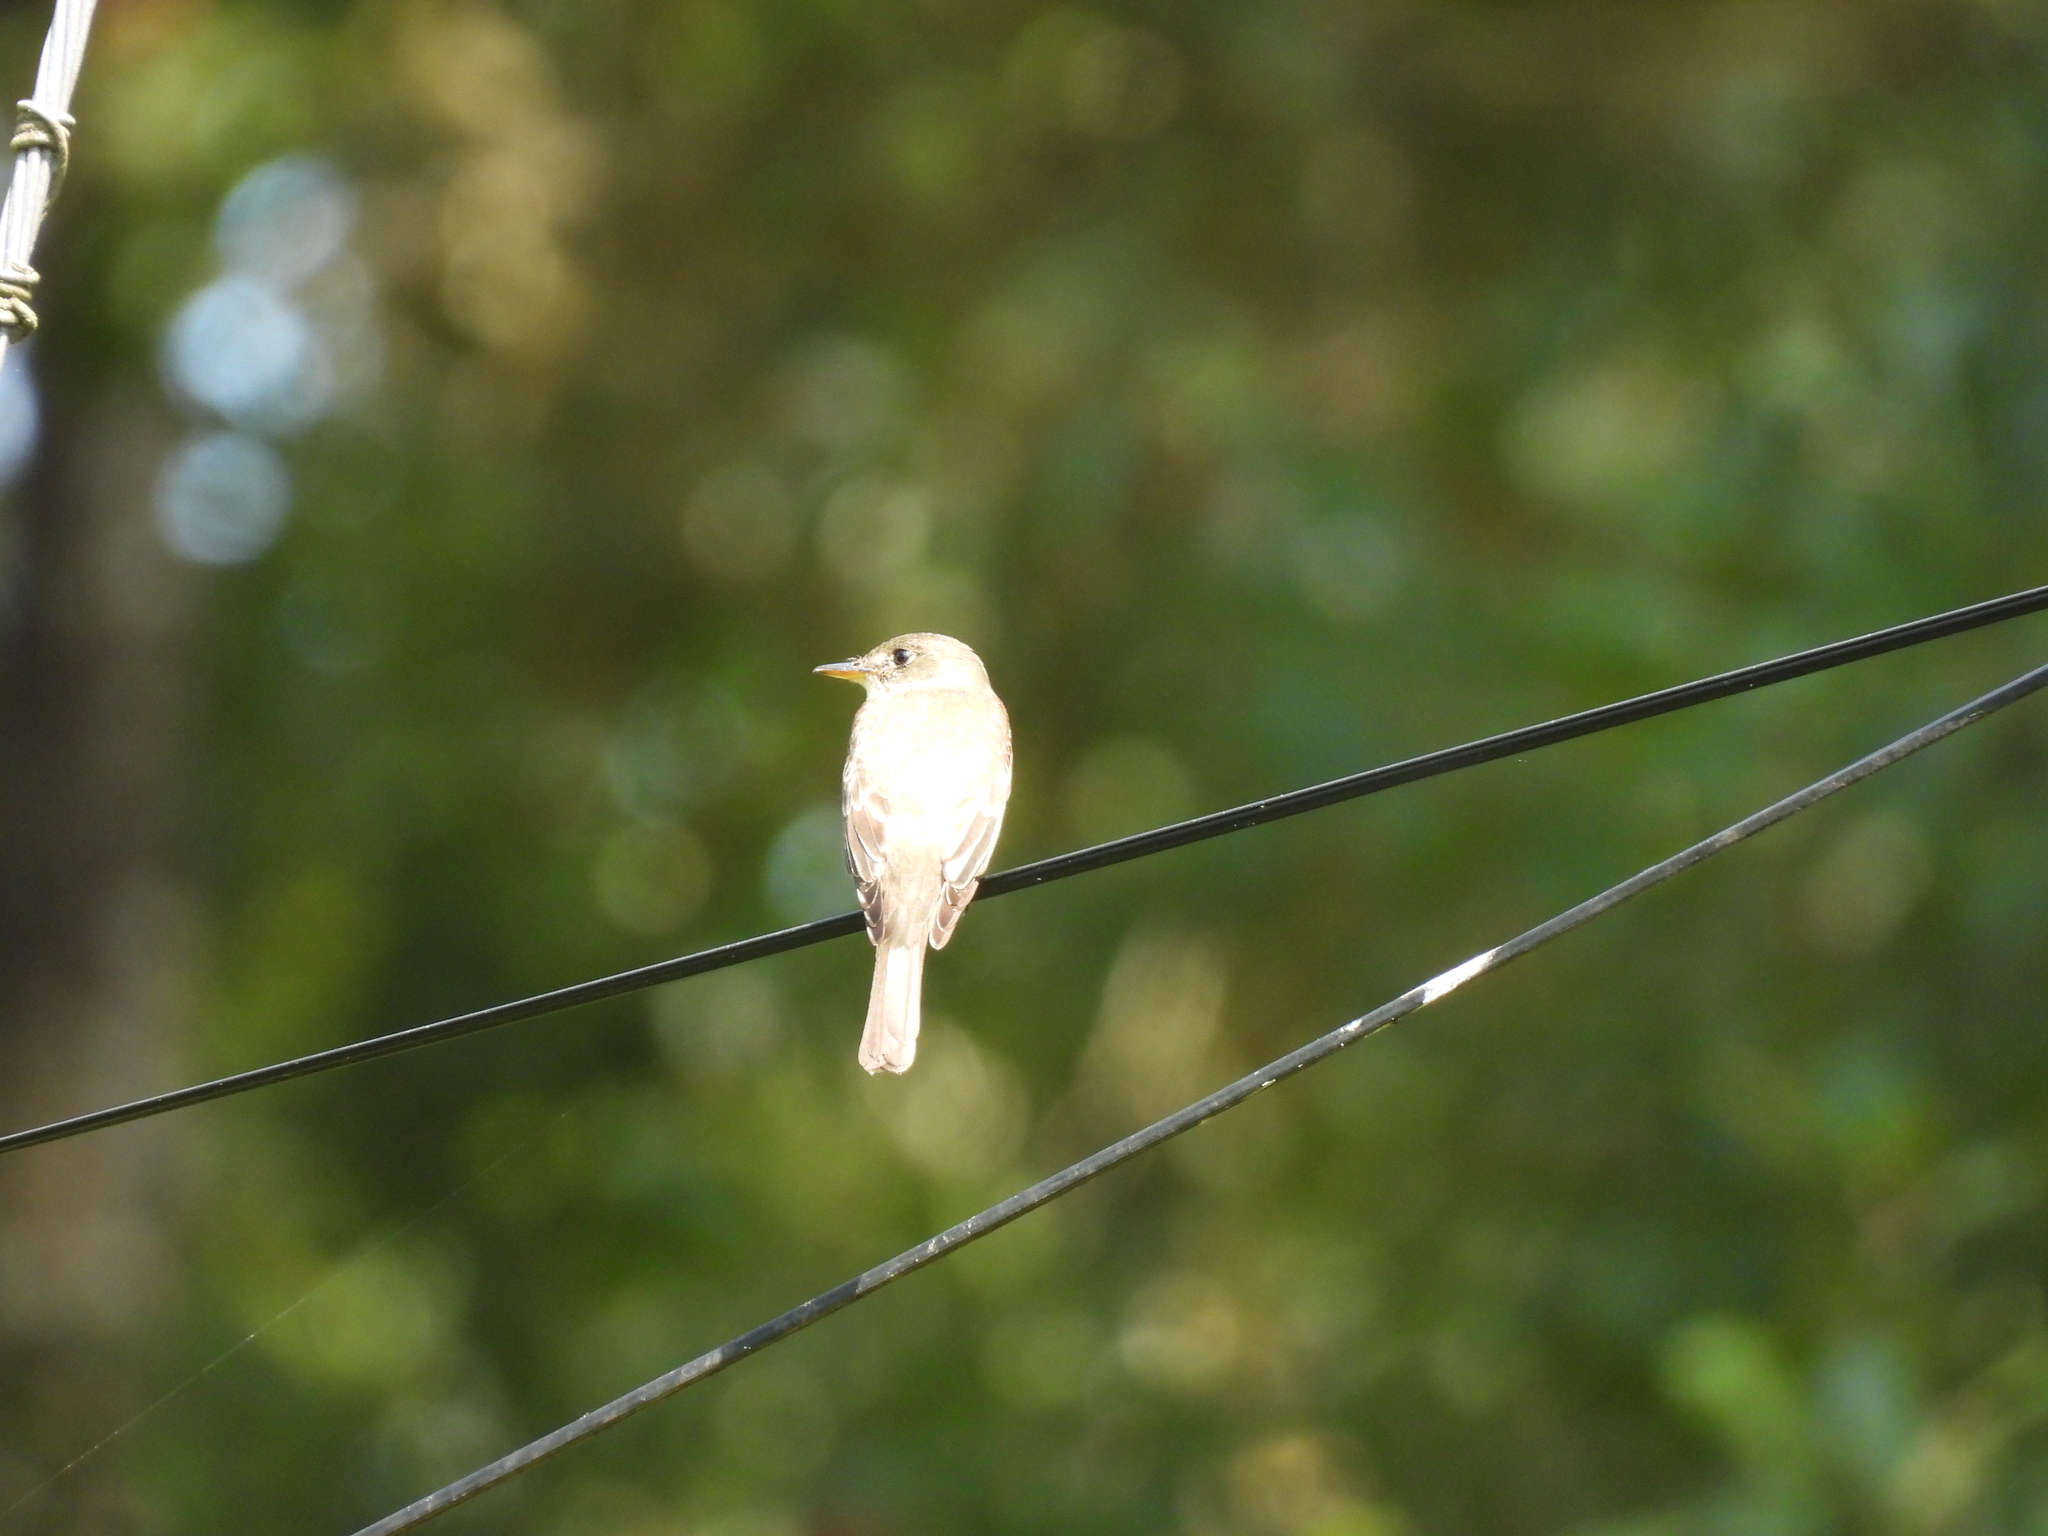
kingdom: Animalia
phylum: Chordata
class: Aves
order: Passeriformes
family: Tyrannidae
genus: Contopus
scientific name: Contopus virens
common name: Eastern wood-pewee
